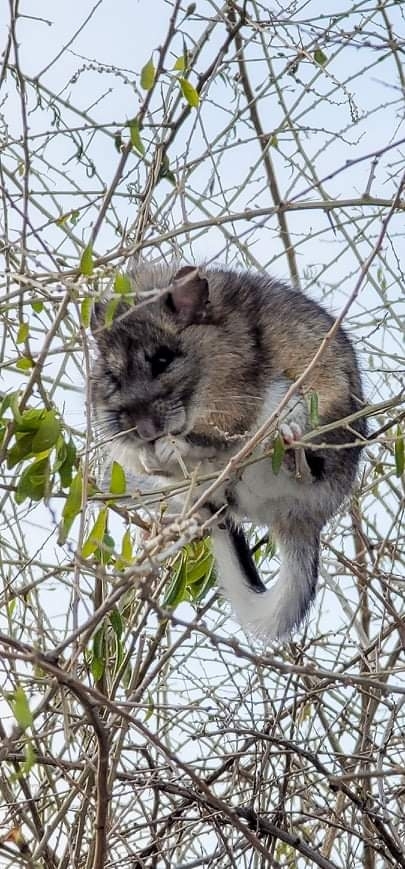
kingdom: Animalia
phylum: Chordata
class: Mammalia
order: Rodentia
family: Cricetidae
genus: Neotoma
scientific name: Neotoma cinerea
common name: Bushy-tailed woodrat
